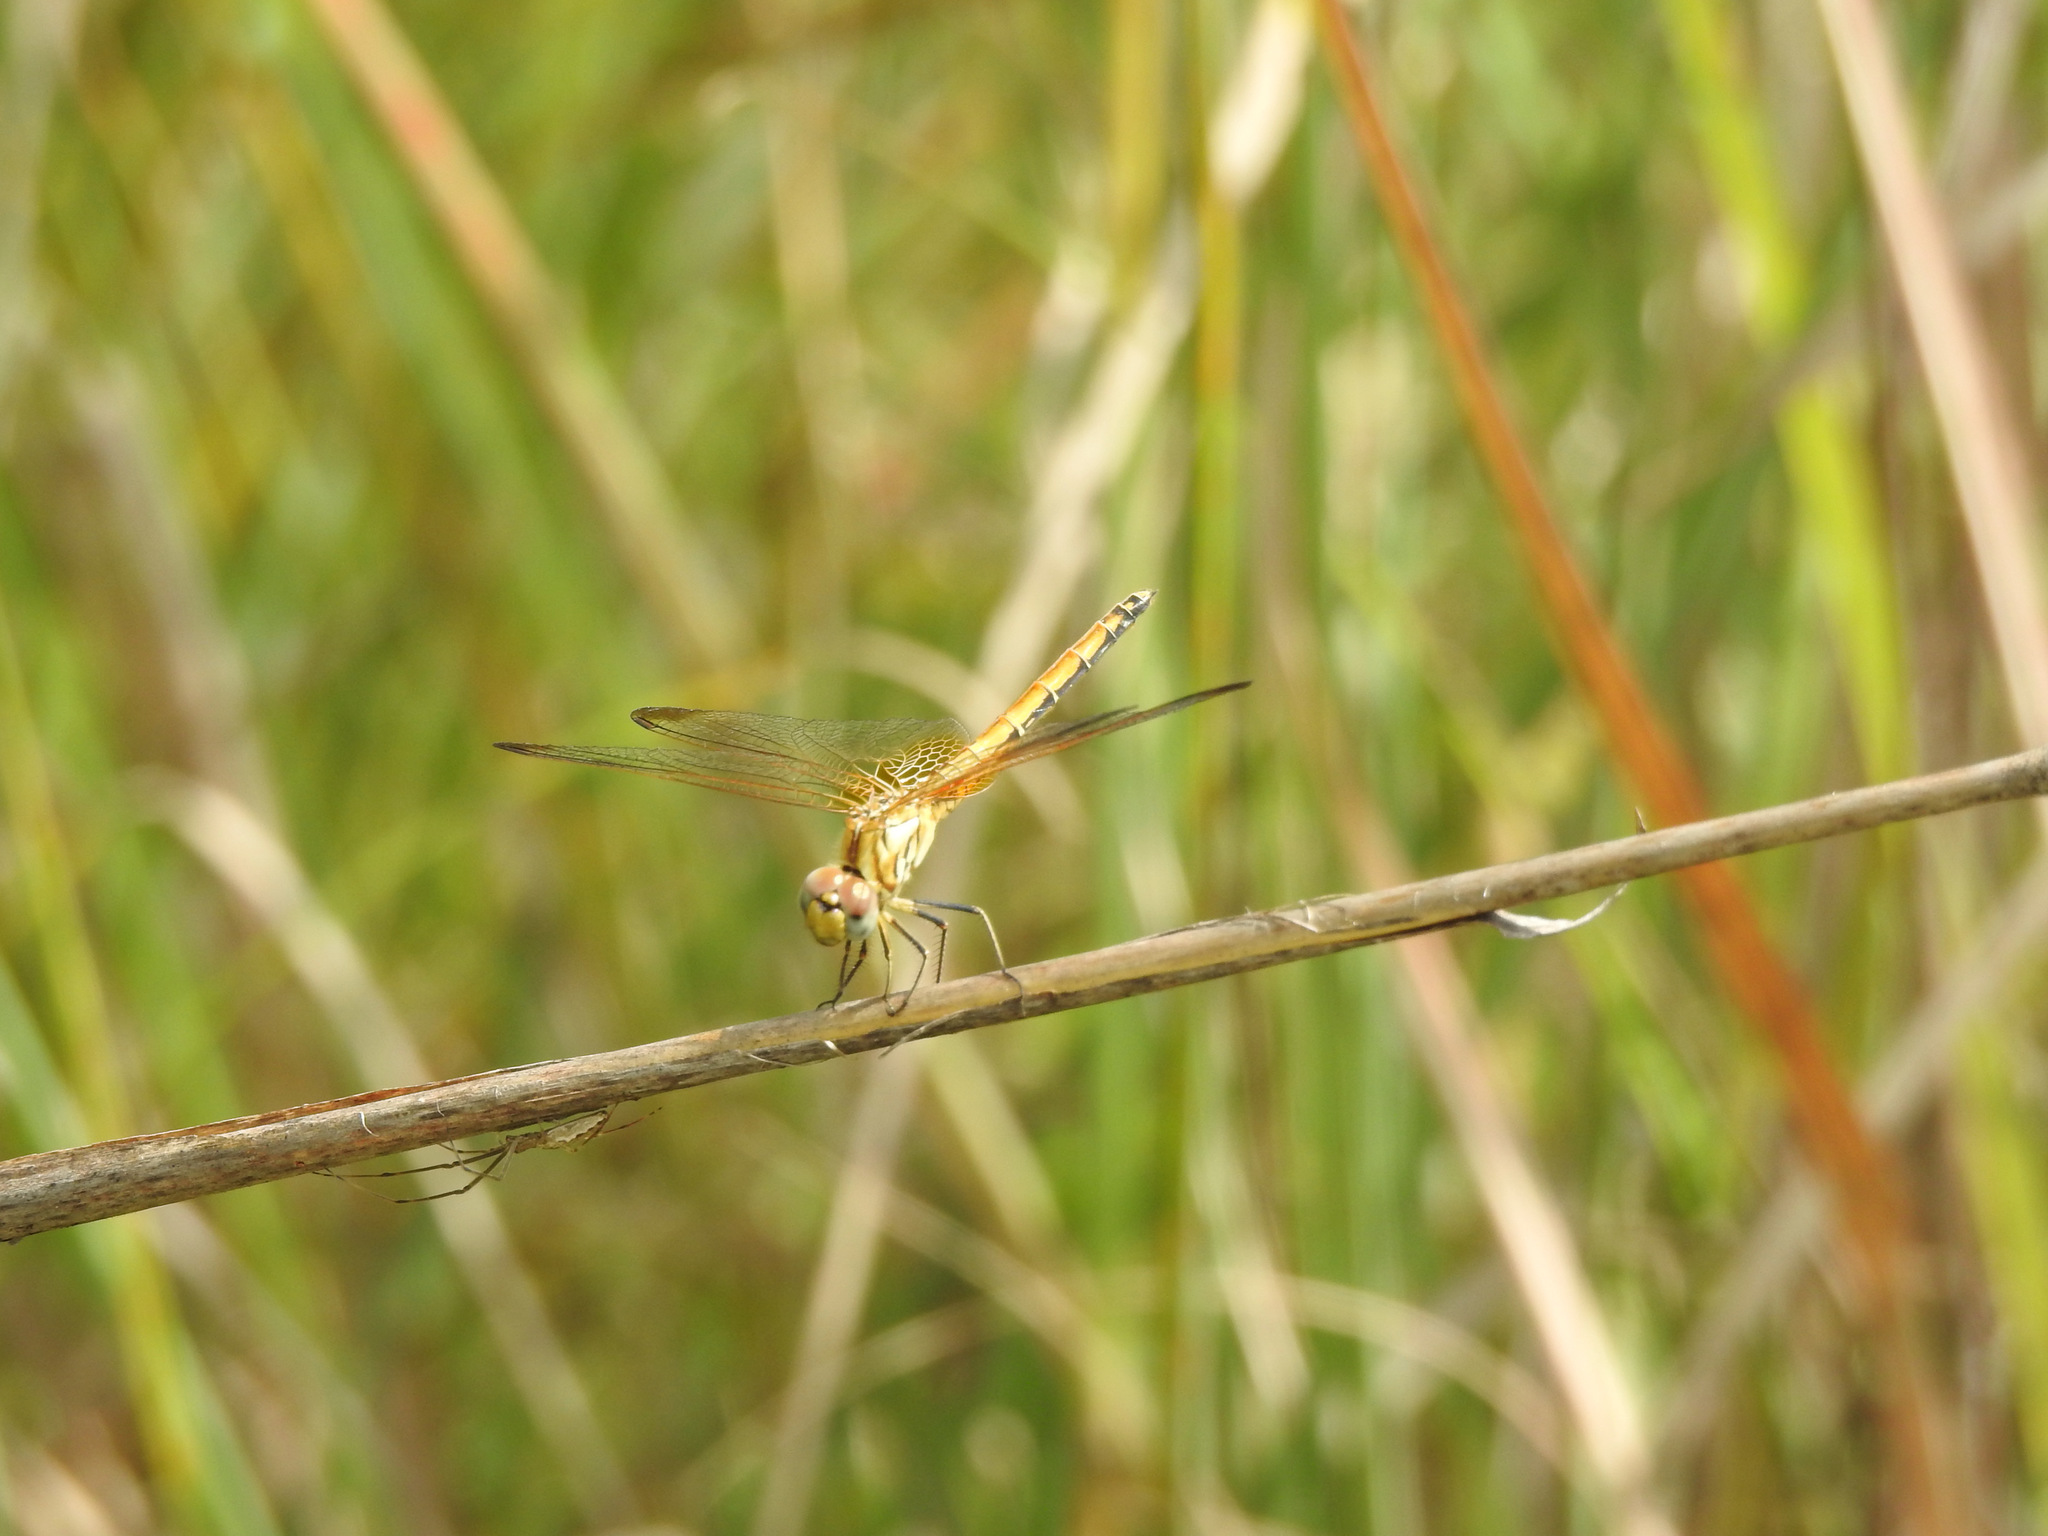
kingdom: Animalia
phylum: Arthropoda
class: Insecta
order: Odonata
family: Libellulidae
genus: Trithemis
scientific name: Trithemis aurora
